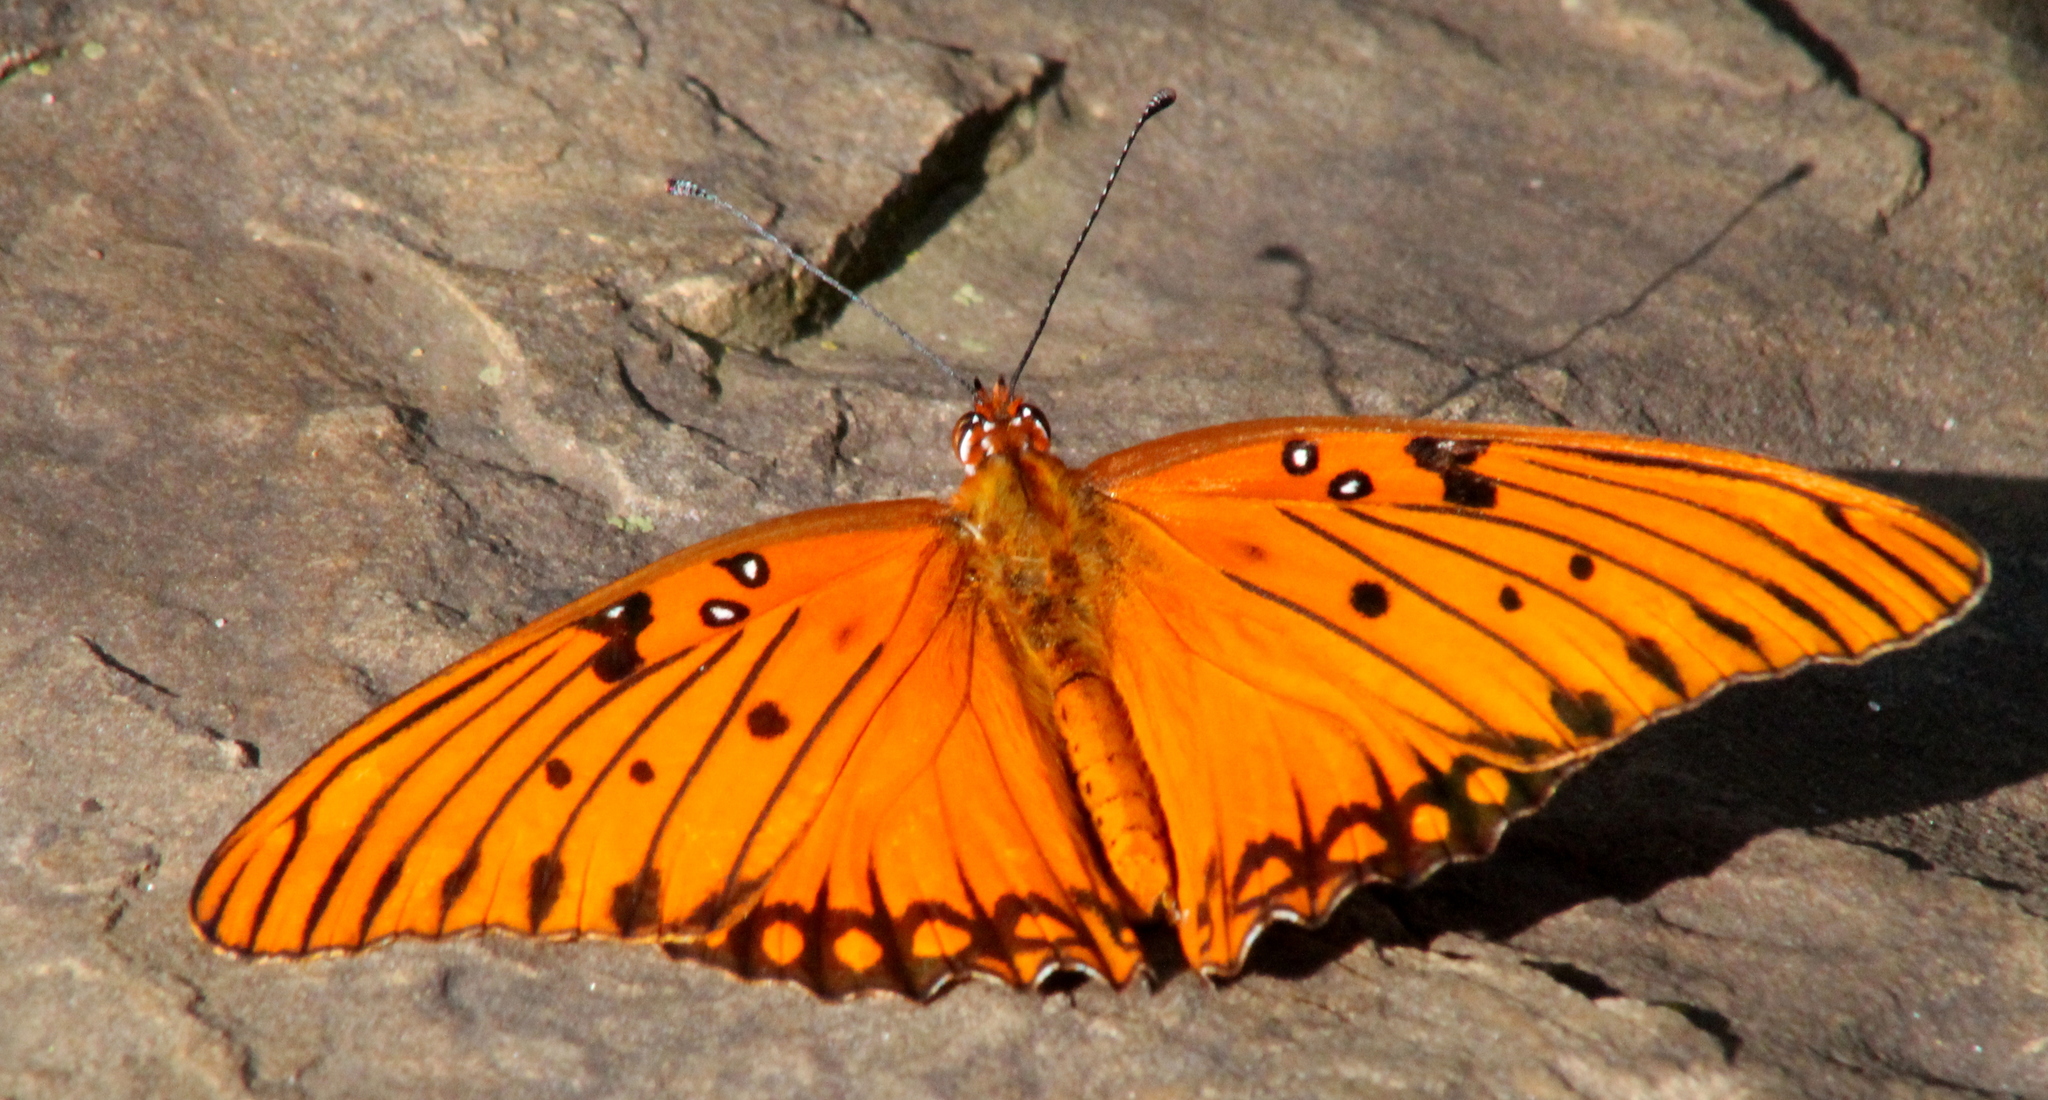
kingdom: Animalia
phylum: Arthropoda
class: Insecta
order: Lepidoptera
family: Nymphalidae
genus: Dione
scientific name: Dione vanillae
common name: Gulf fritillary
